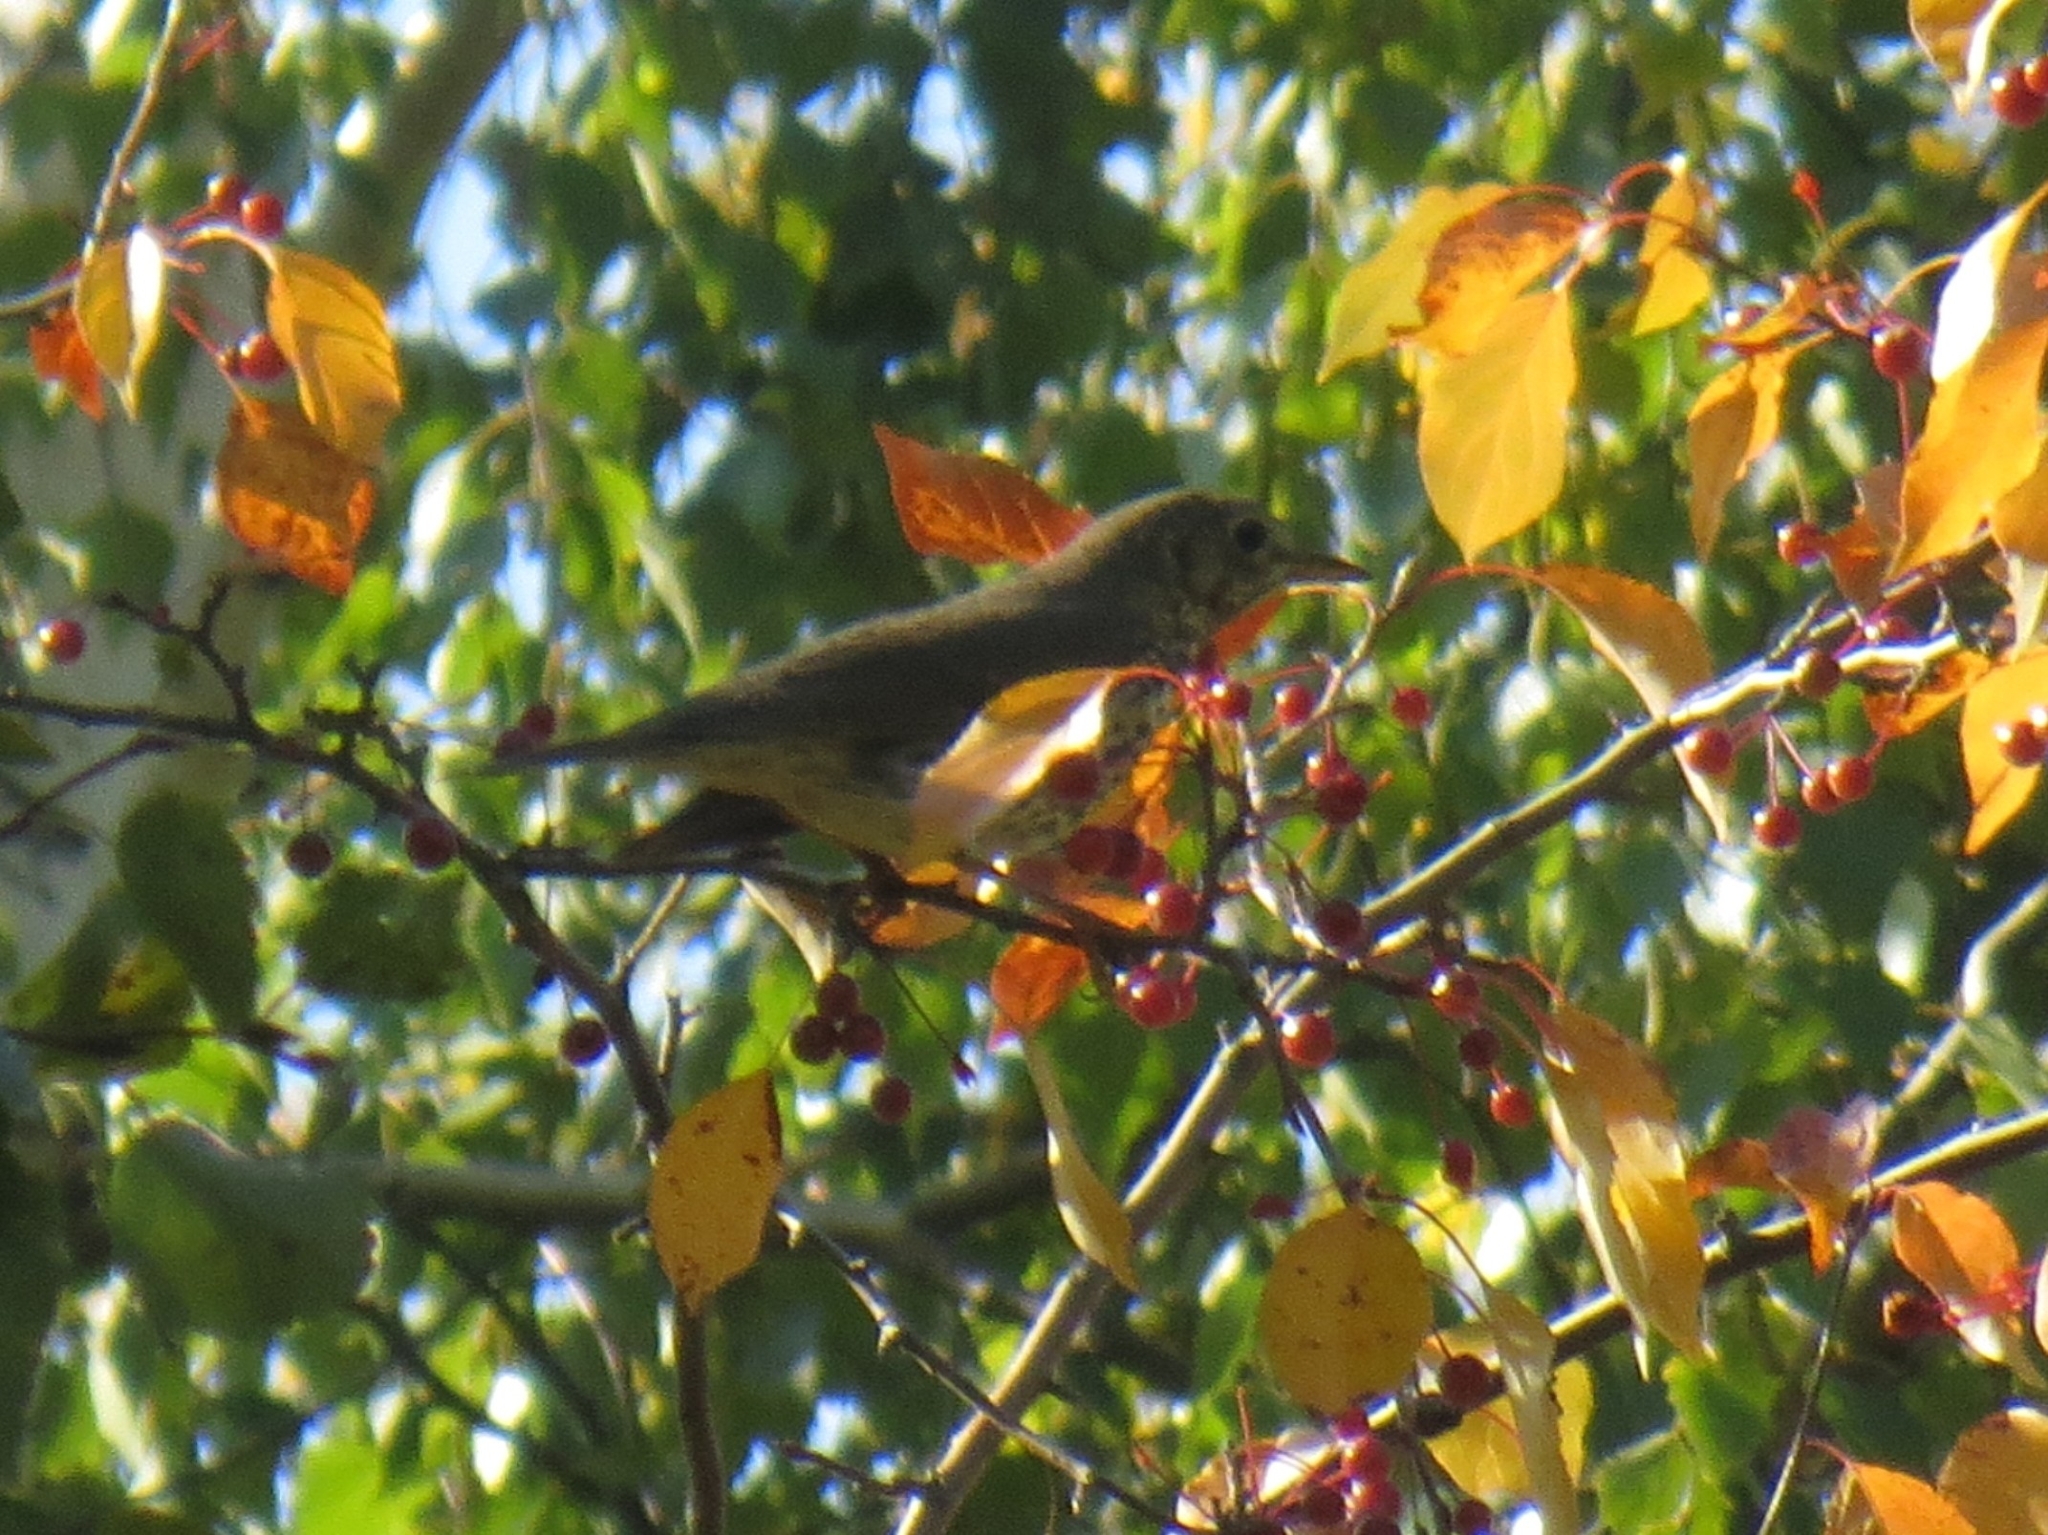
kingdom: Animalia
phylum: Chordata
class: Aves
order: Passeriformes
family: Turdidae
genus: Turdus
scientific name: Turdus philomelos
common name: Song thrush
